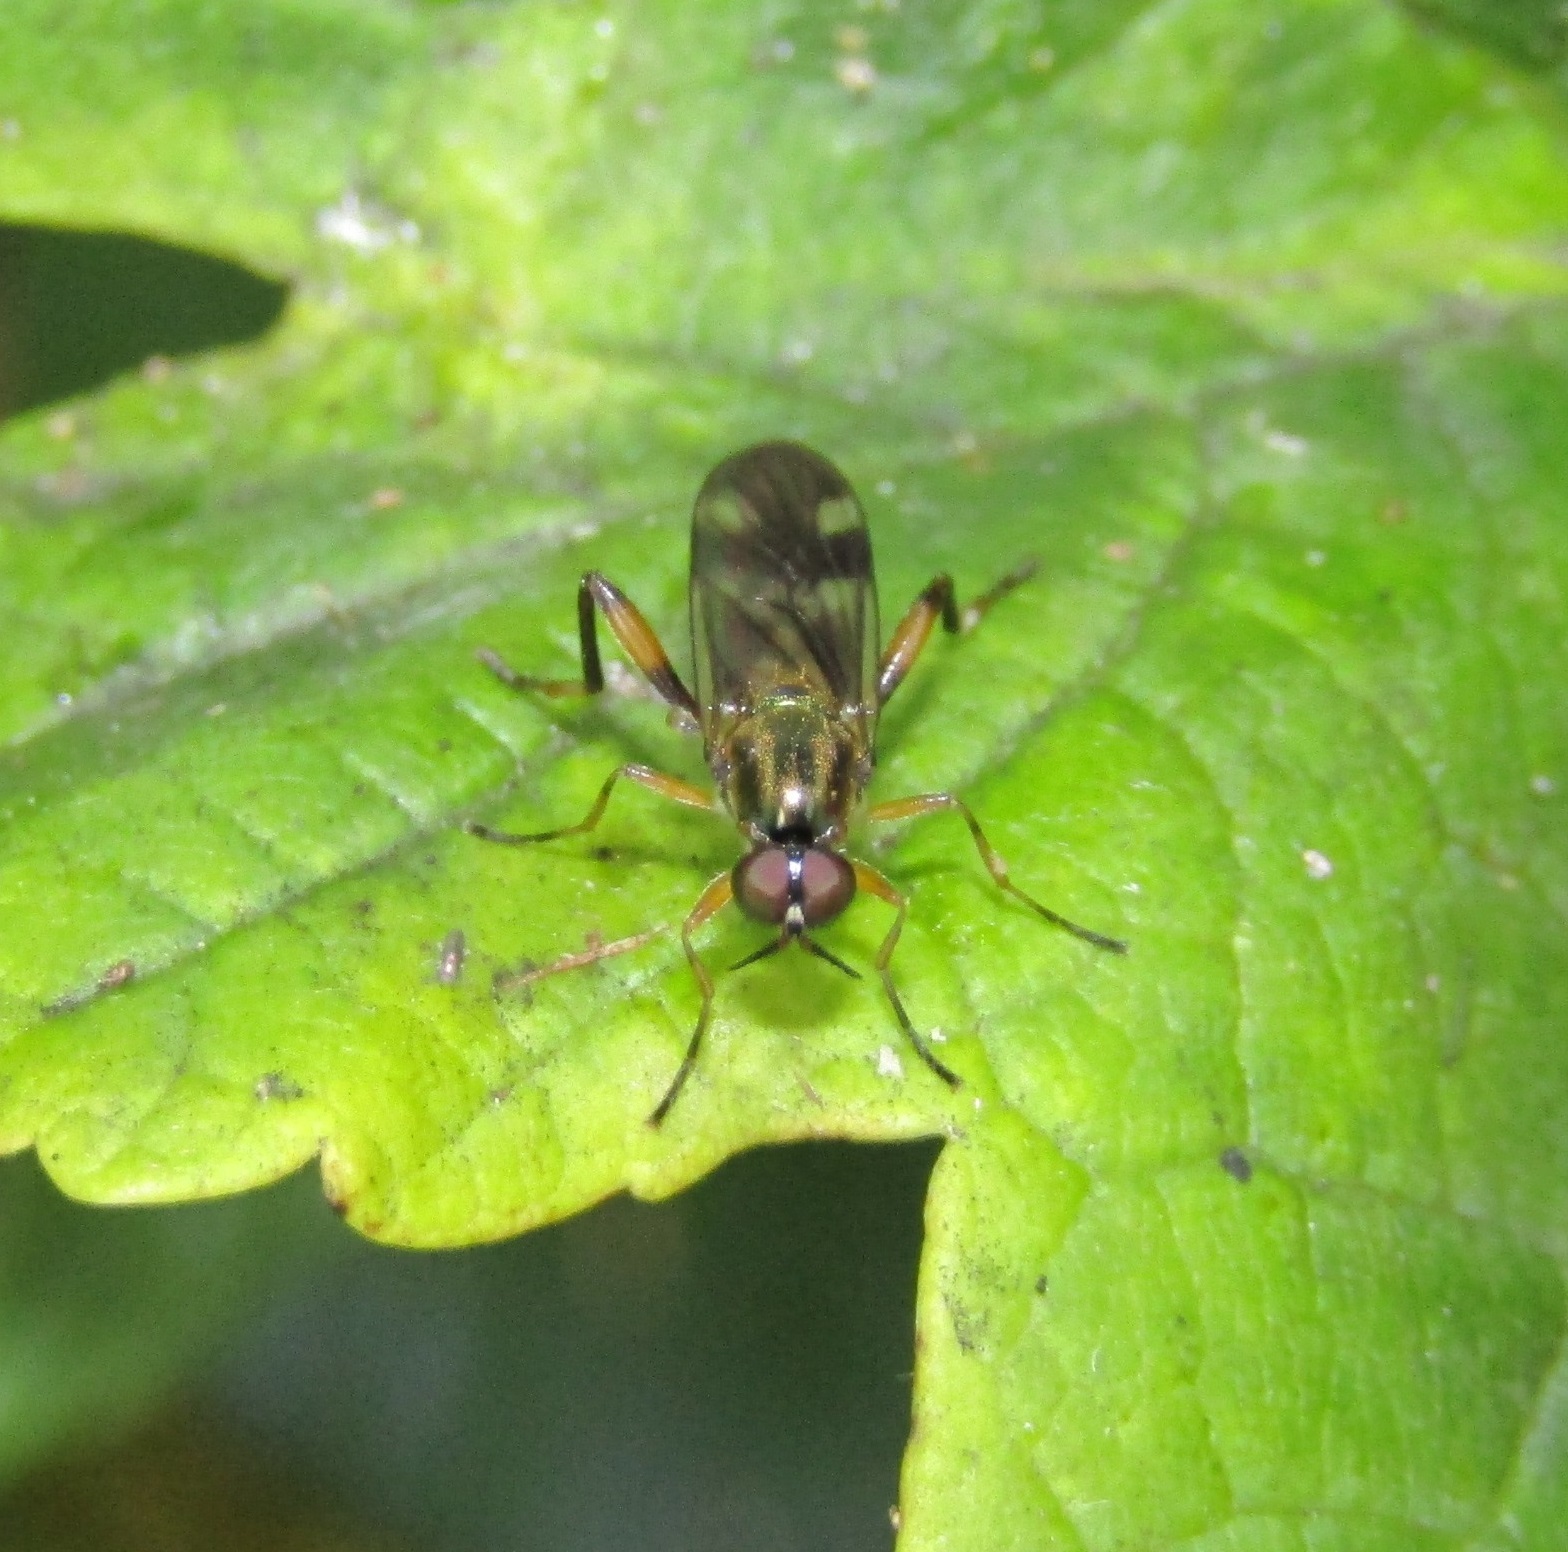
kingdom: Animalia
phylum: Arthropoda
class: Insecta
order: Diptera
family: Stratiomyidae
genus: Benhamyia
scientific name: Benhamyia hoheria
